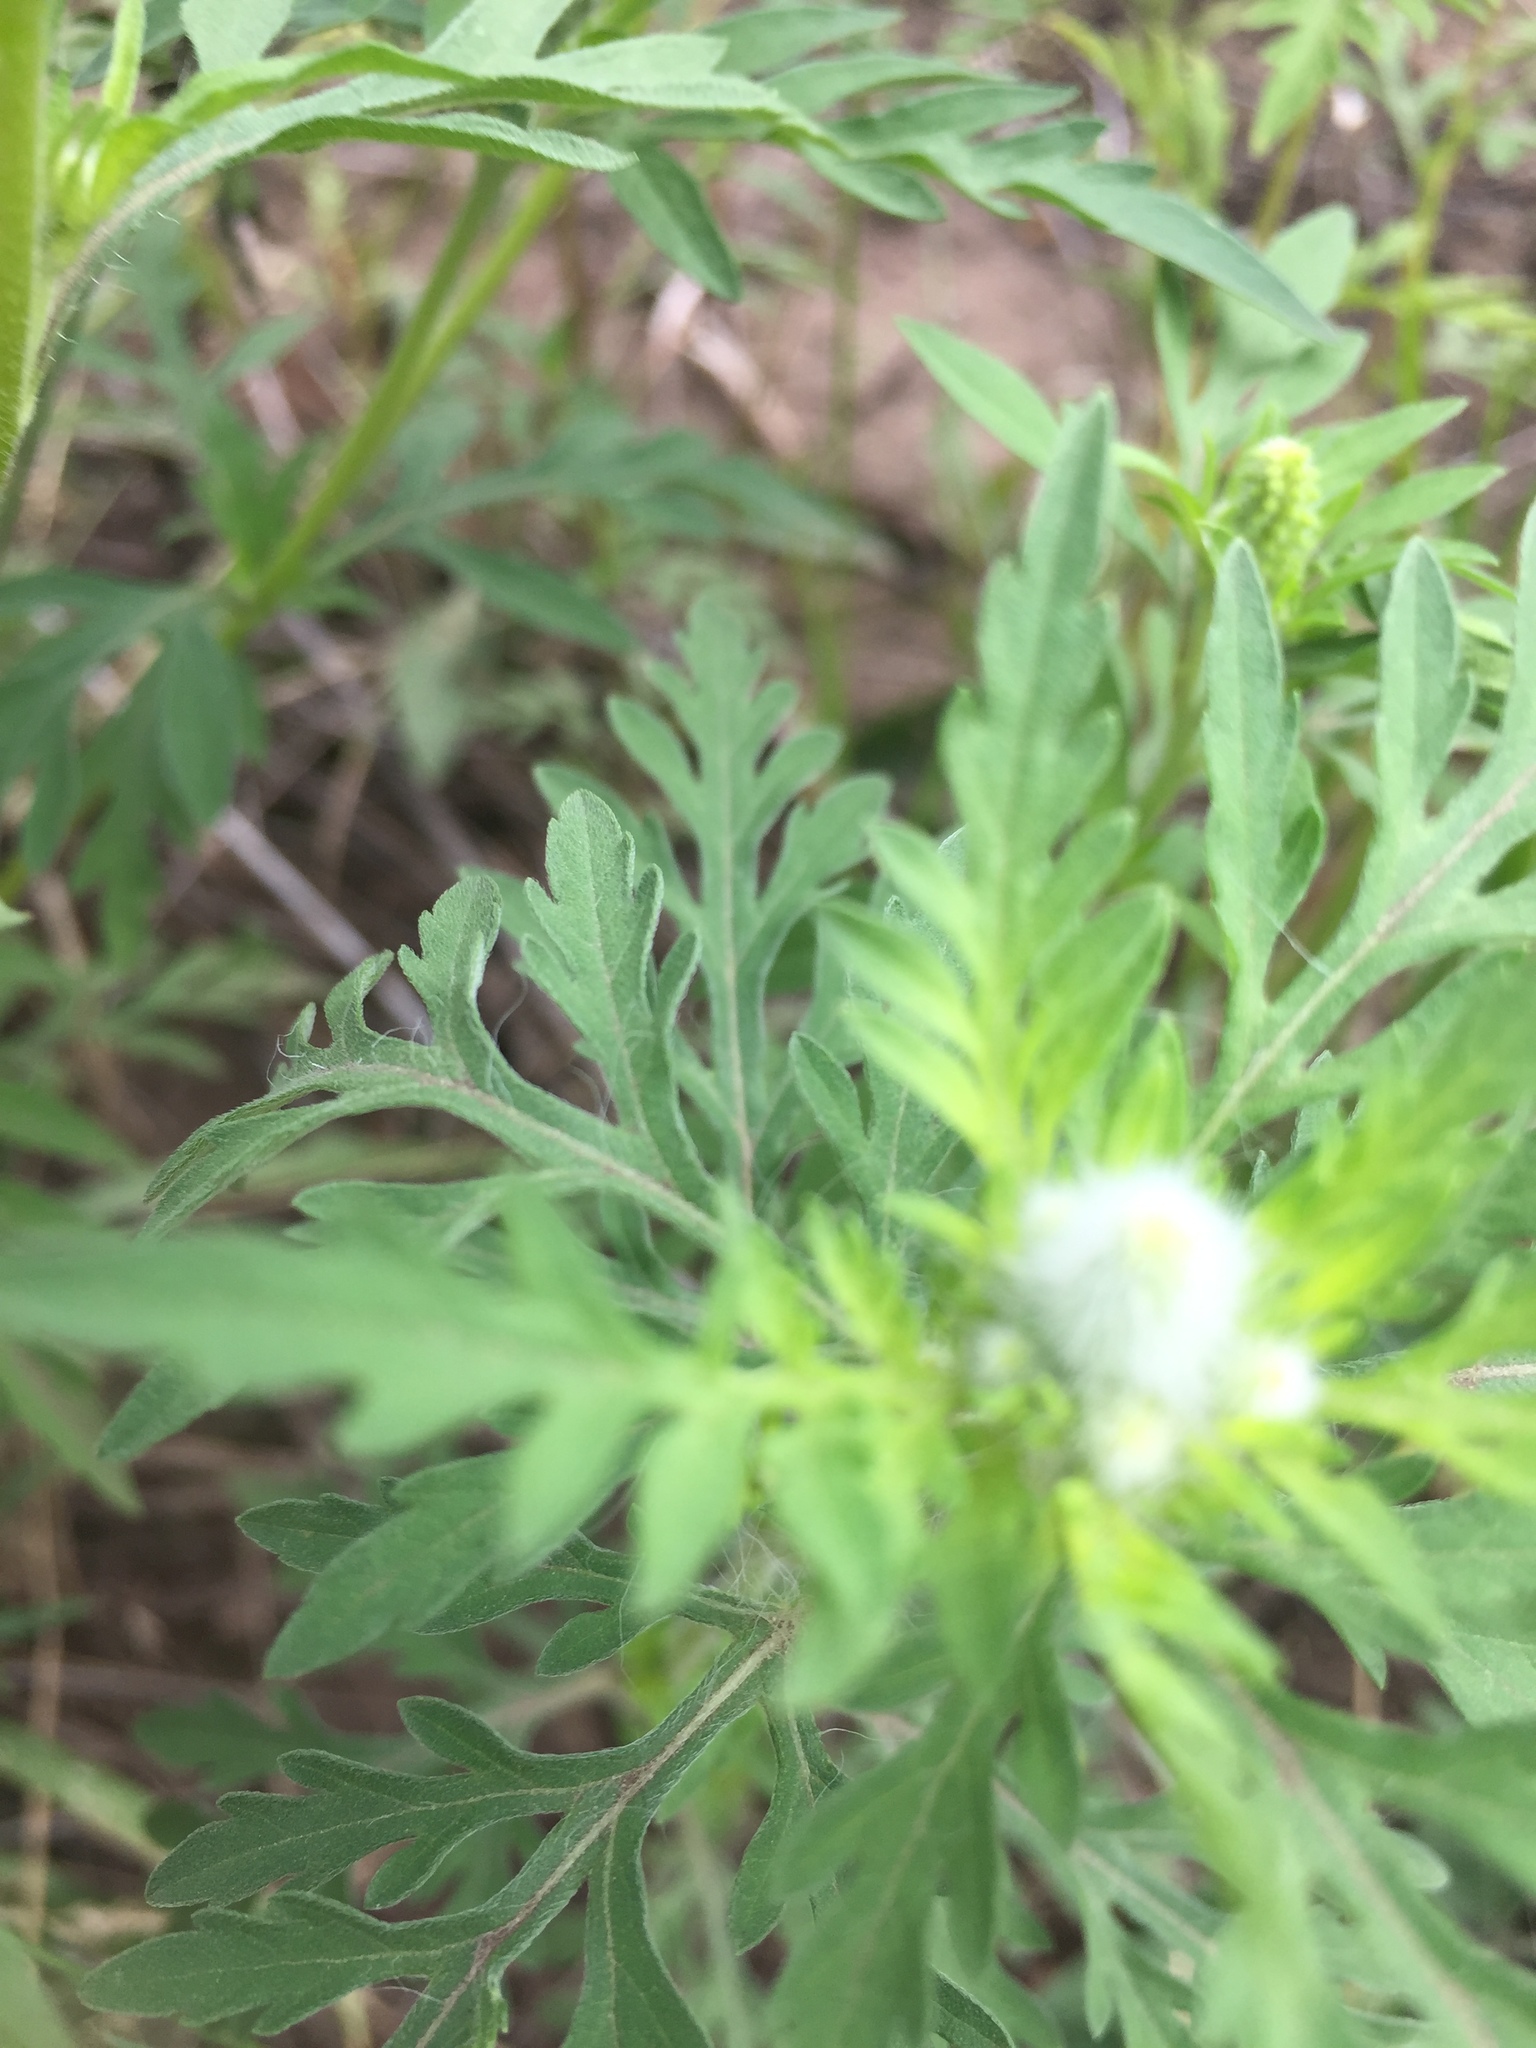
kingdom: Plantae
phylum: Tracheophyta
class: Magnoliopsida
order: Asterales
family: Asteraceae
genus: Ambrosia
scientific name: Ambrosia artemisiifolia
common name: Annual ragweed
